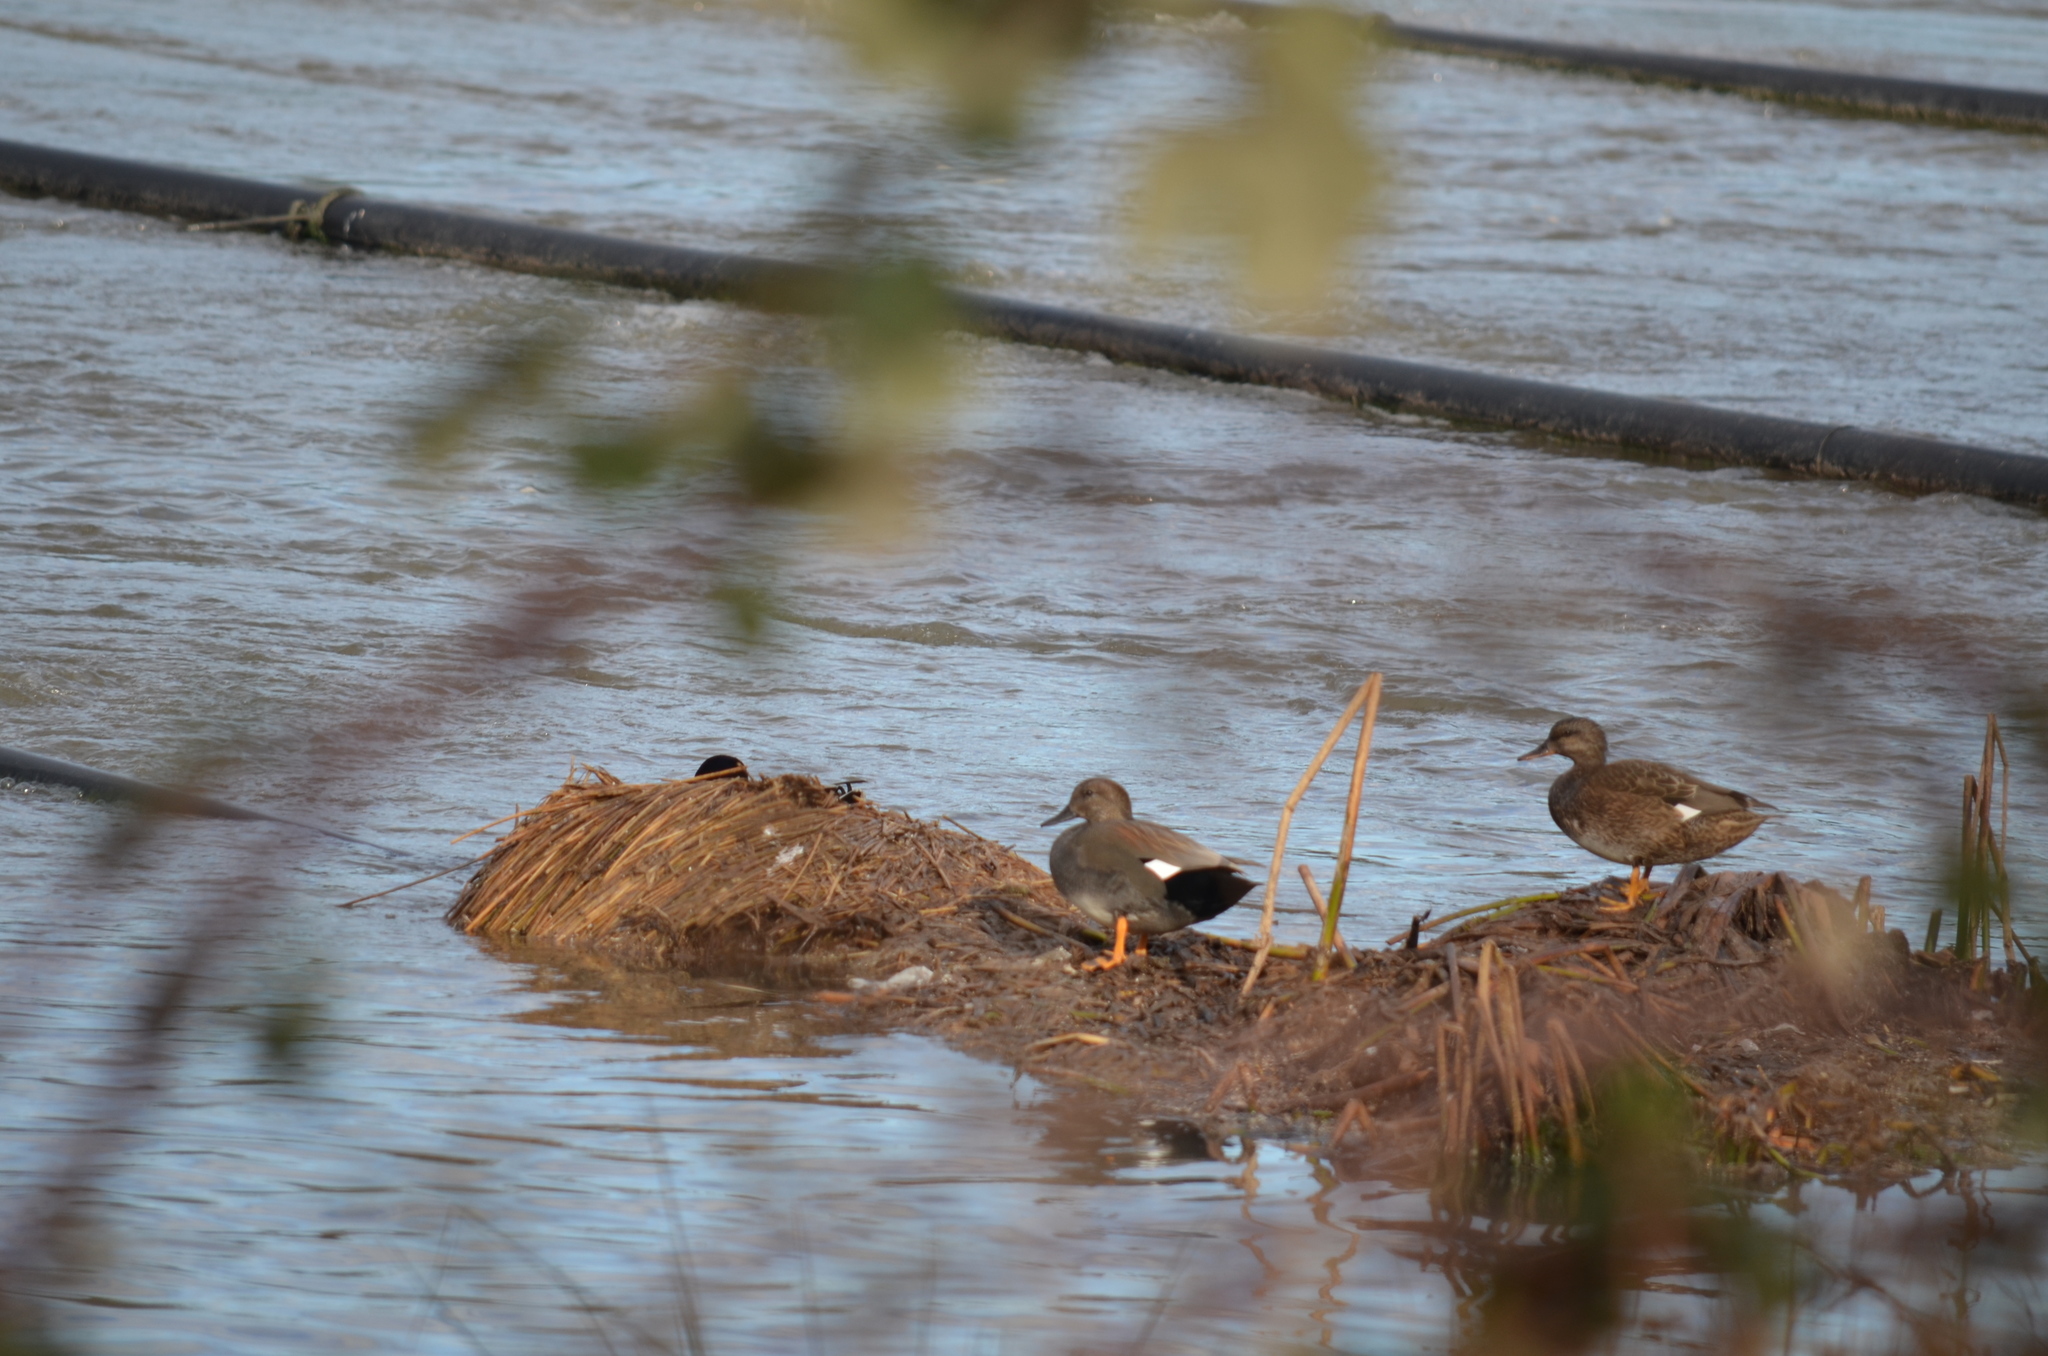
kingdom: Animalia
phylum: Chordata
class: Aves
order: Anseriformes
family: Anatidae
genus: Mareca
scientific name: Mareca strepera
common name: Gadwall
